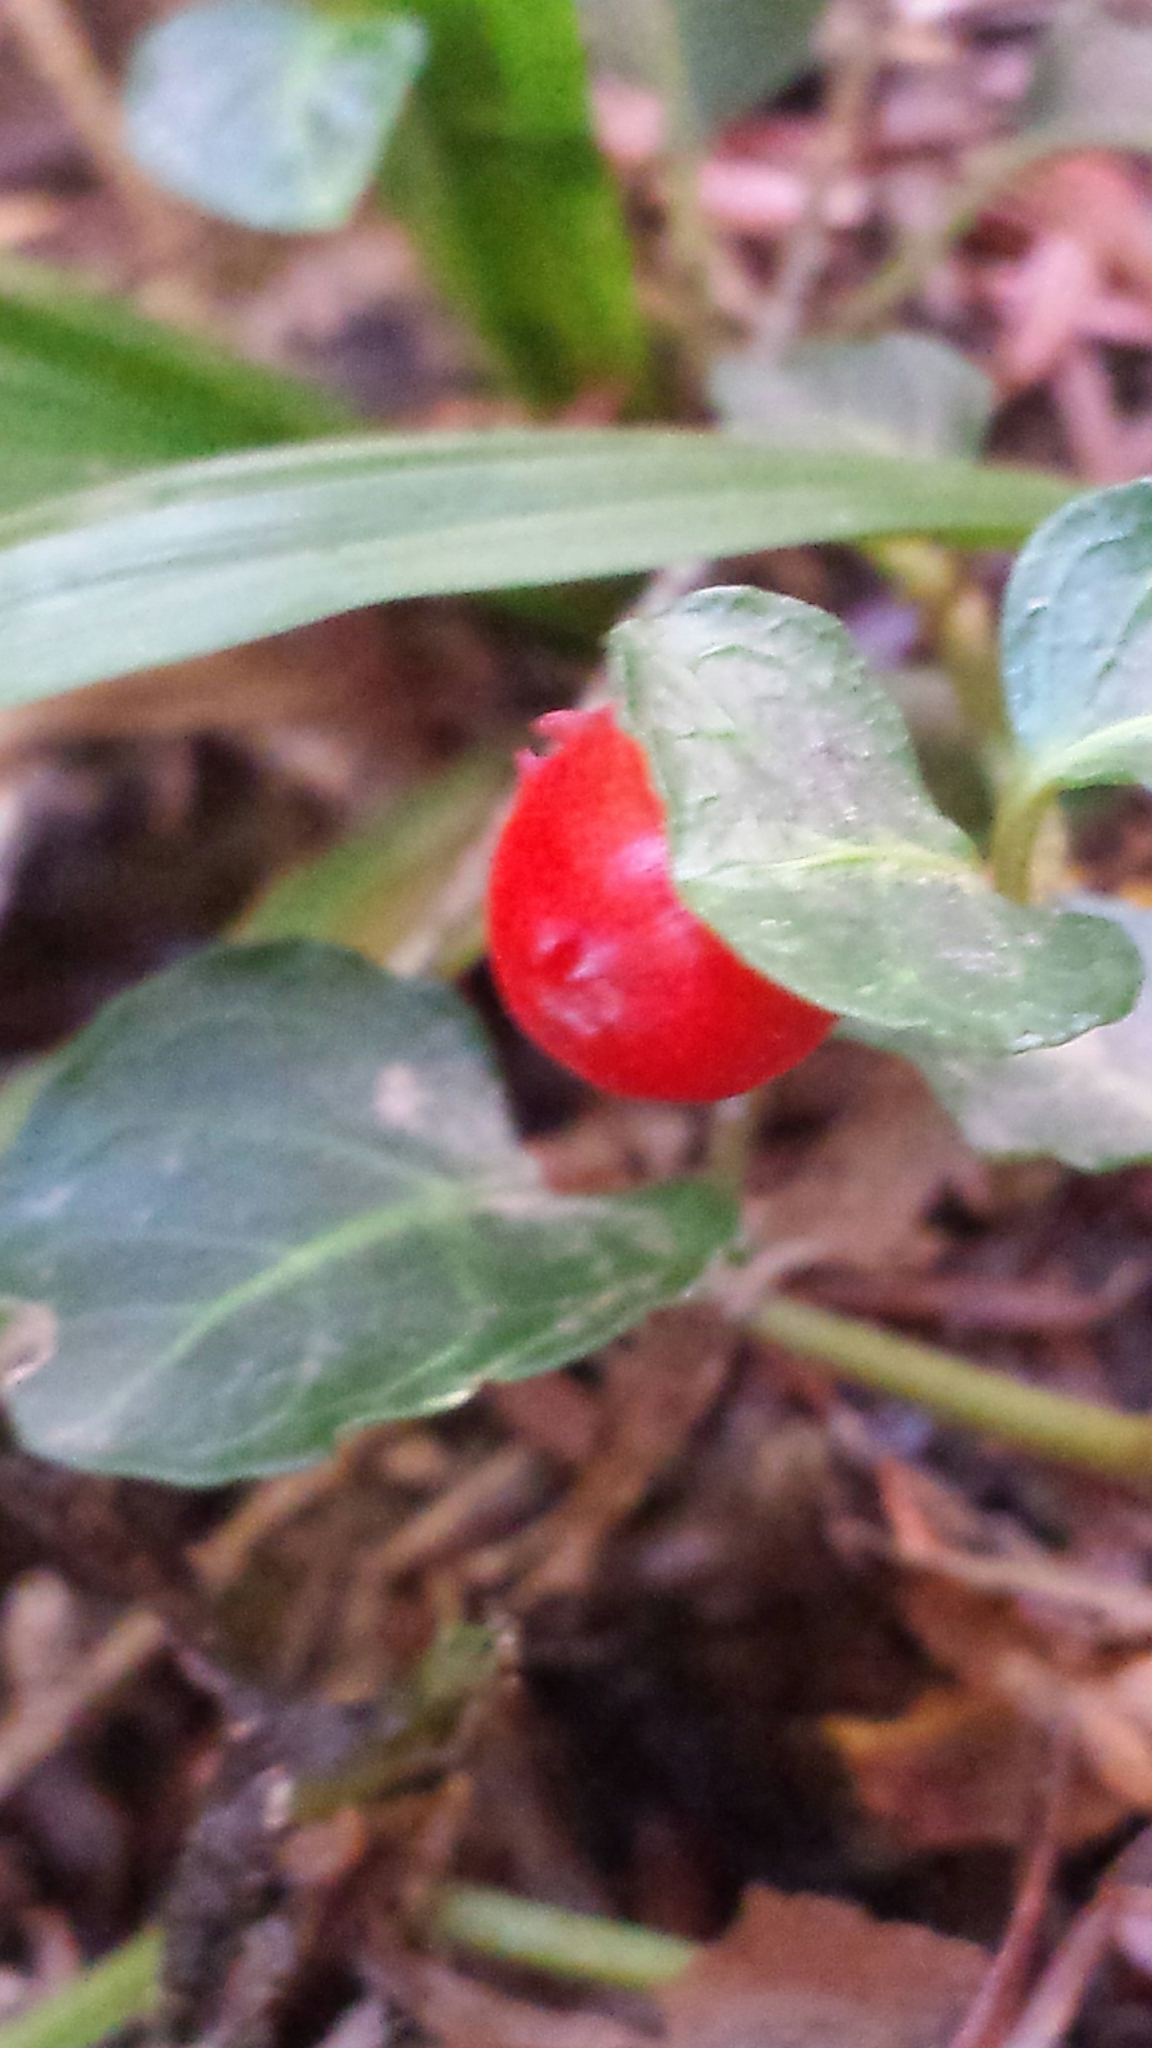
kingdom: Plantae
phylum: Tracheophyta
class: Magnoliopsida
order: Gentianales
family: Rubiaceae
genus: Mitchella
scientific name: Mitchella repens
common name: Partridge-berry
